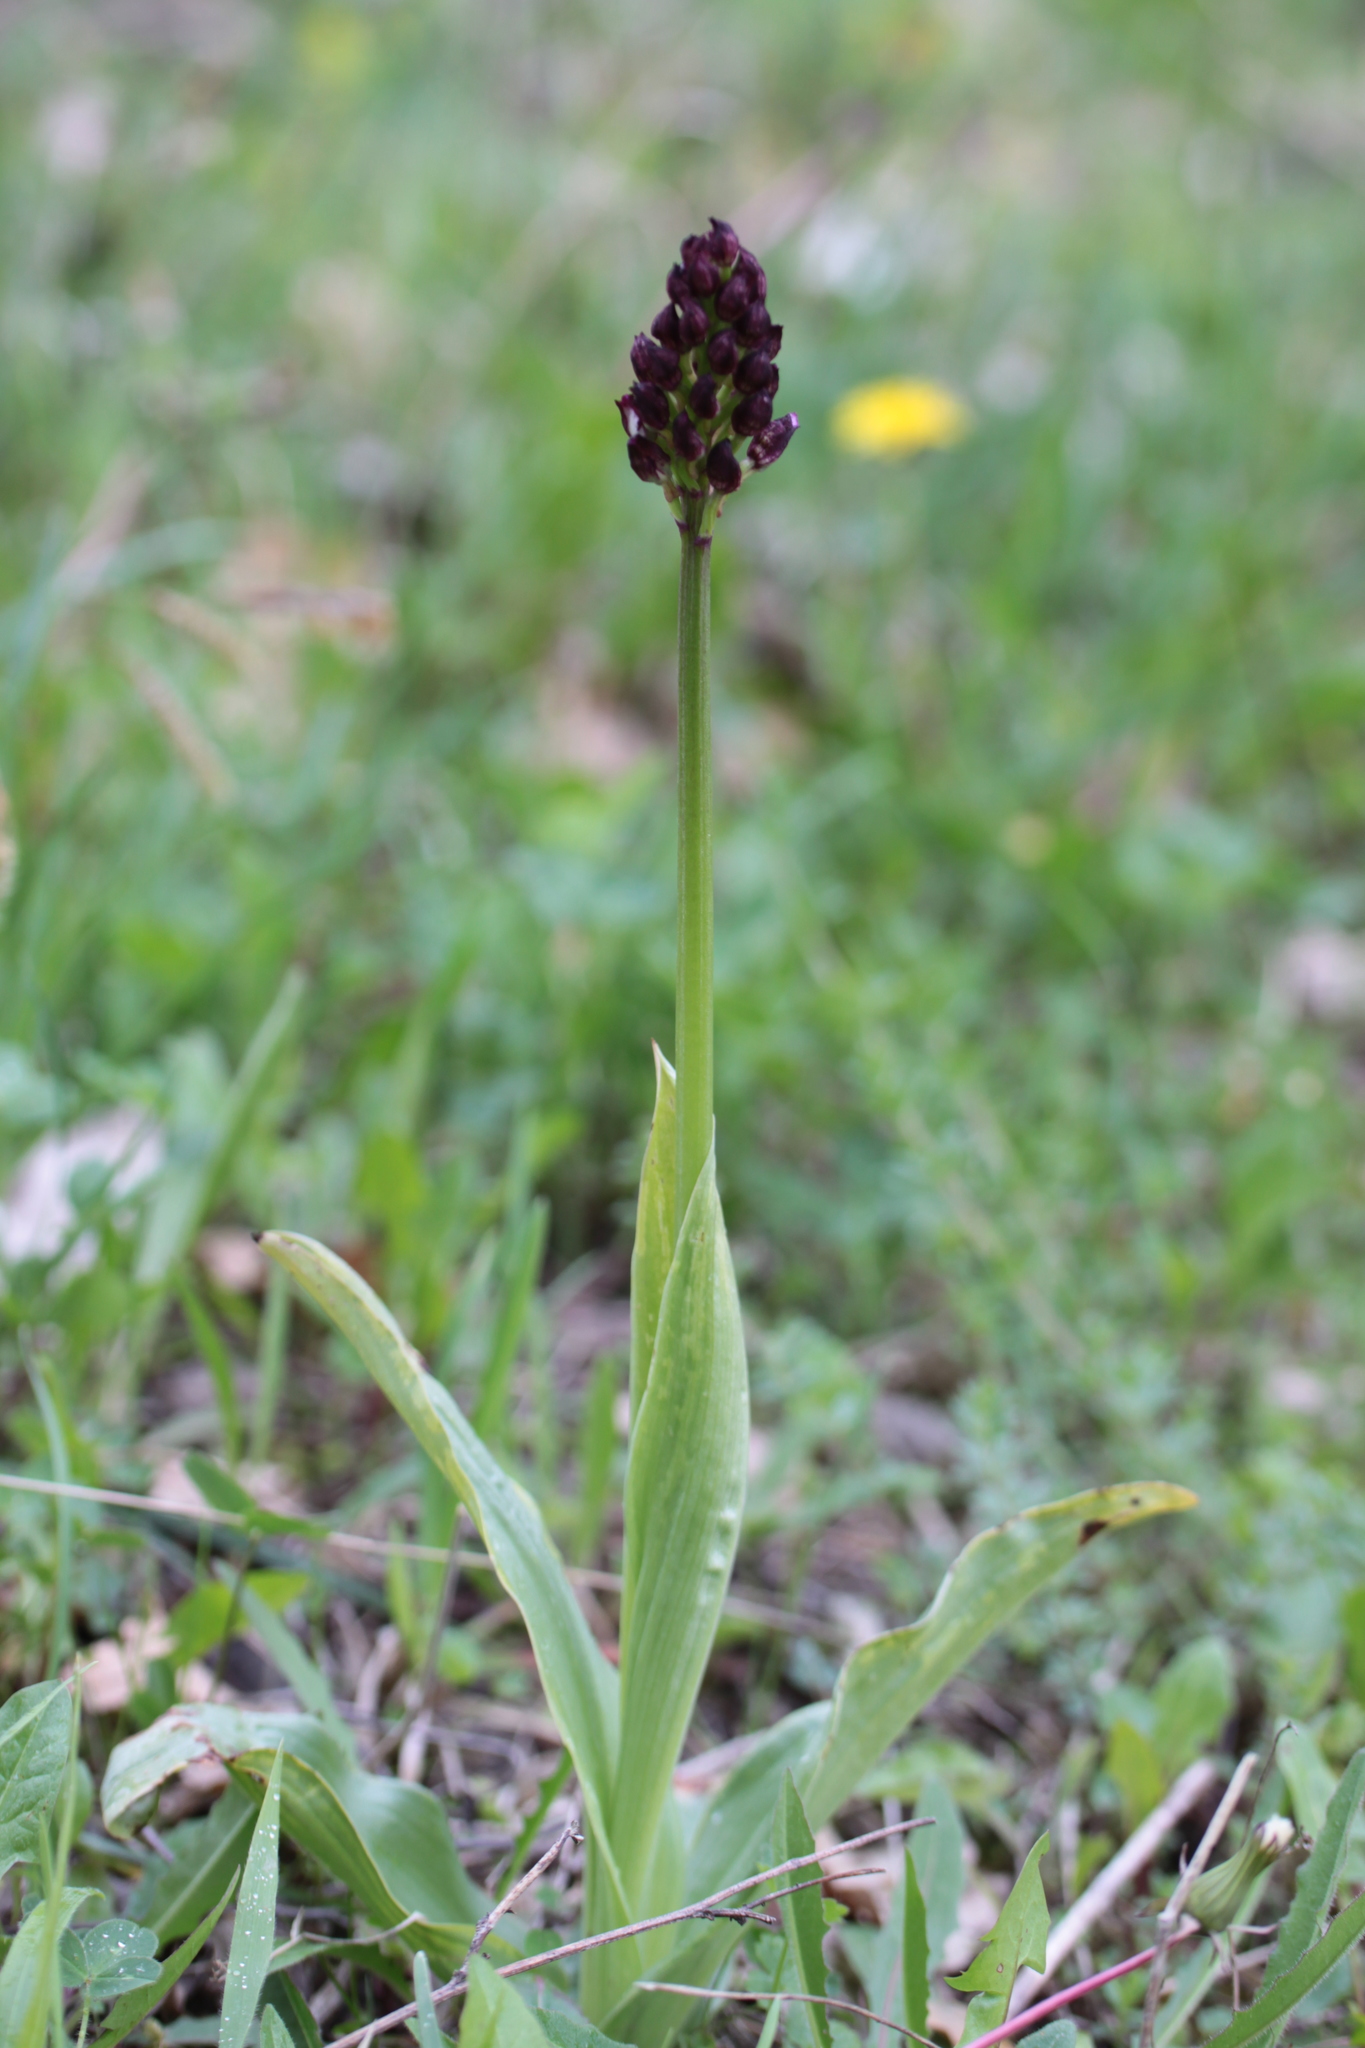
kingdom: Plantae
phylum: Tracheophyta
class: Liliopsida
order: Asparagales
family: Orchidaceae
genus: Orchis
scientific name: Orchis purpurea
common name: Lady orchid
